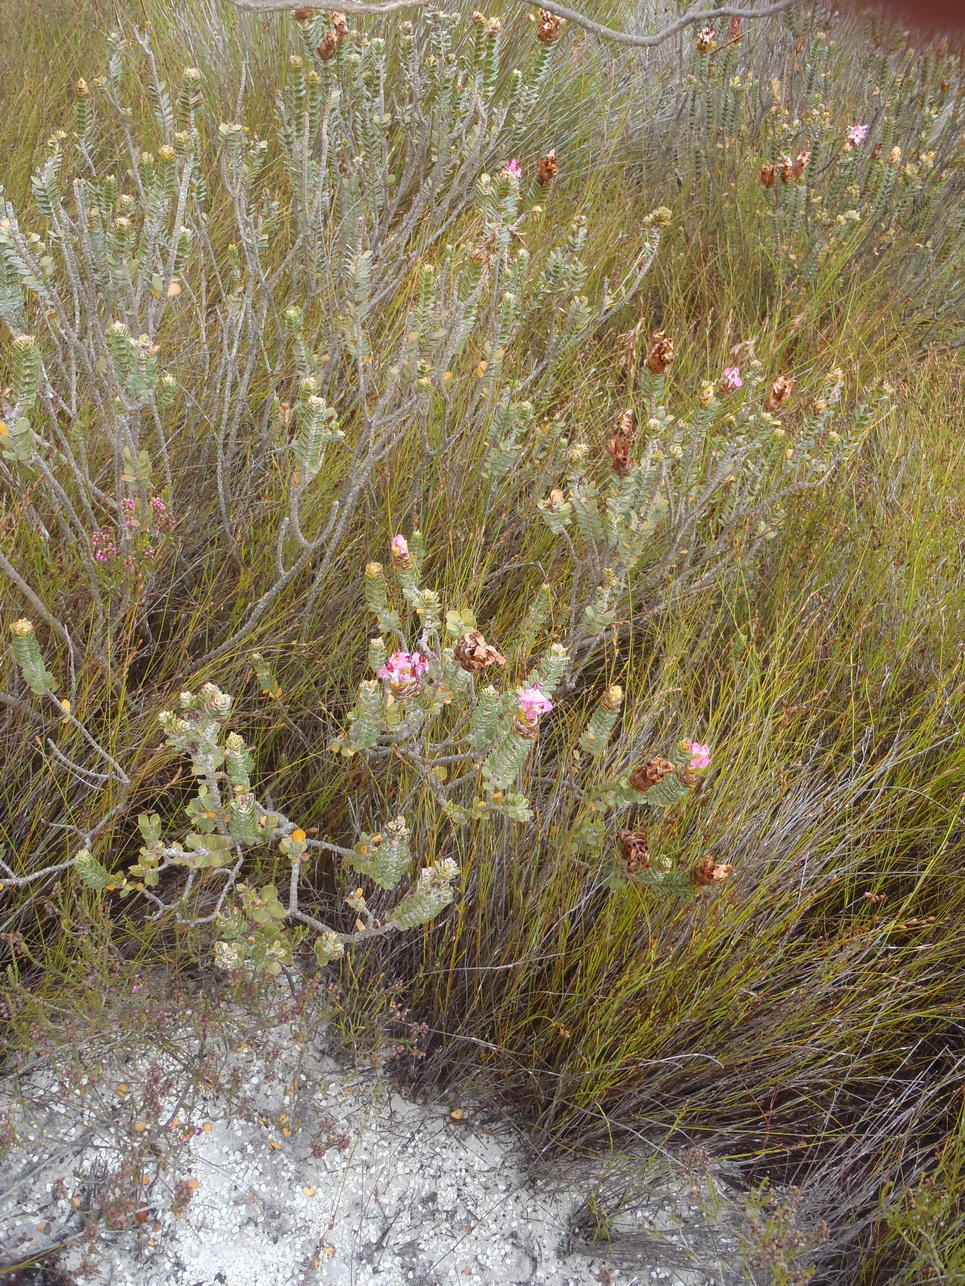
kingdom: Plantae
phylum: Tracheophyta
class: Magnoliopsida
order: Myrtales
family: Penaeaceae
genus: Saltera
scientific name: Saltera sarcocolla
